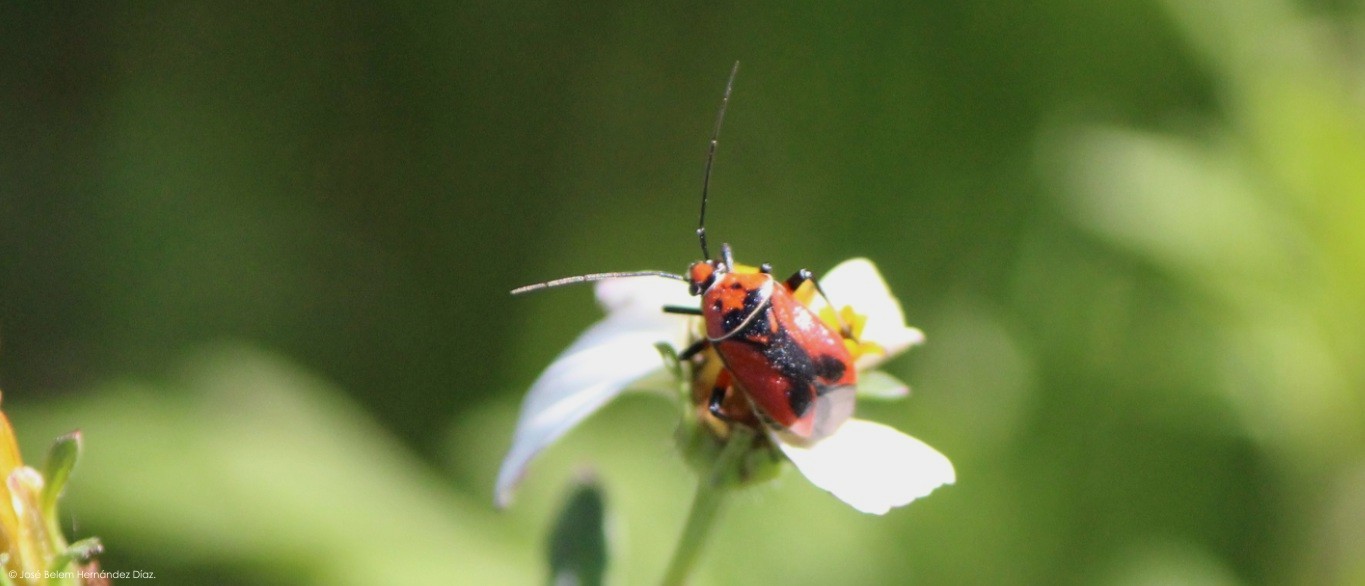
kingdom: Animalia
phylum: Arthropoda
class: Insecta
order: Hemiptera
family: Miridae
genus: Neocapsus
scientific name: Neocapsus fasciativentris
